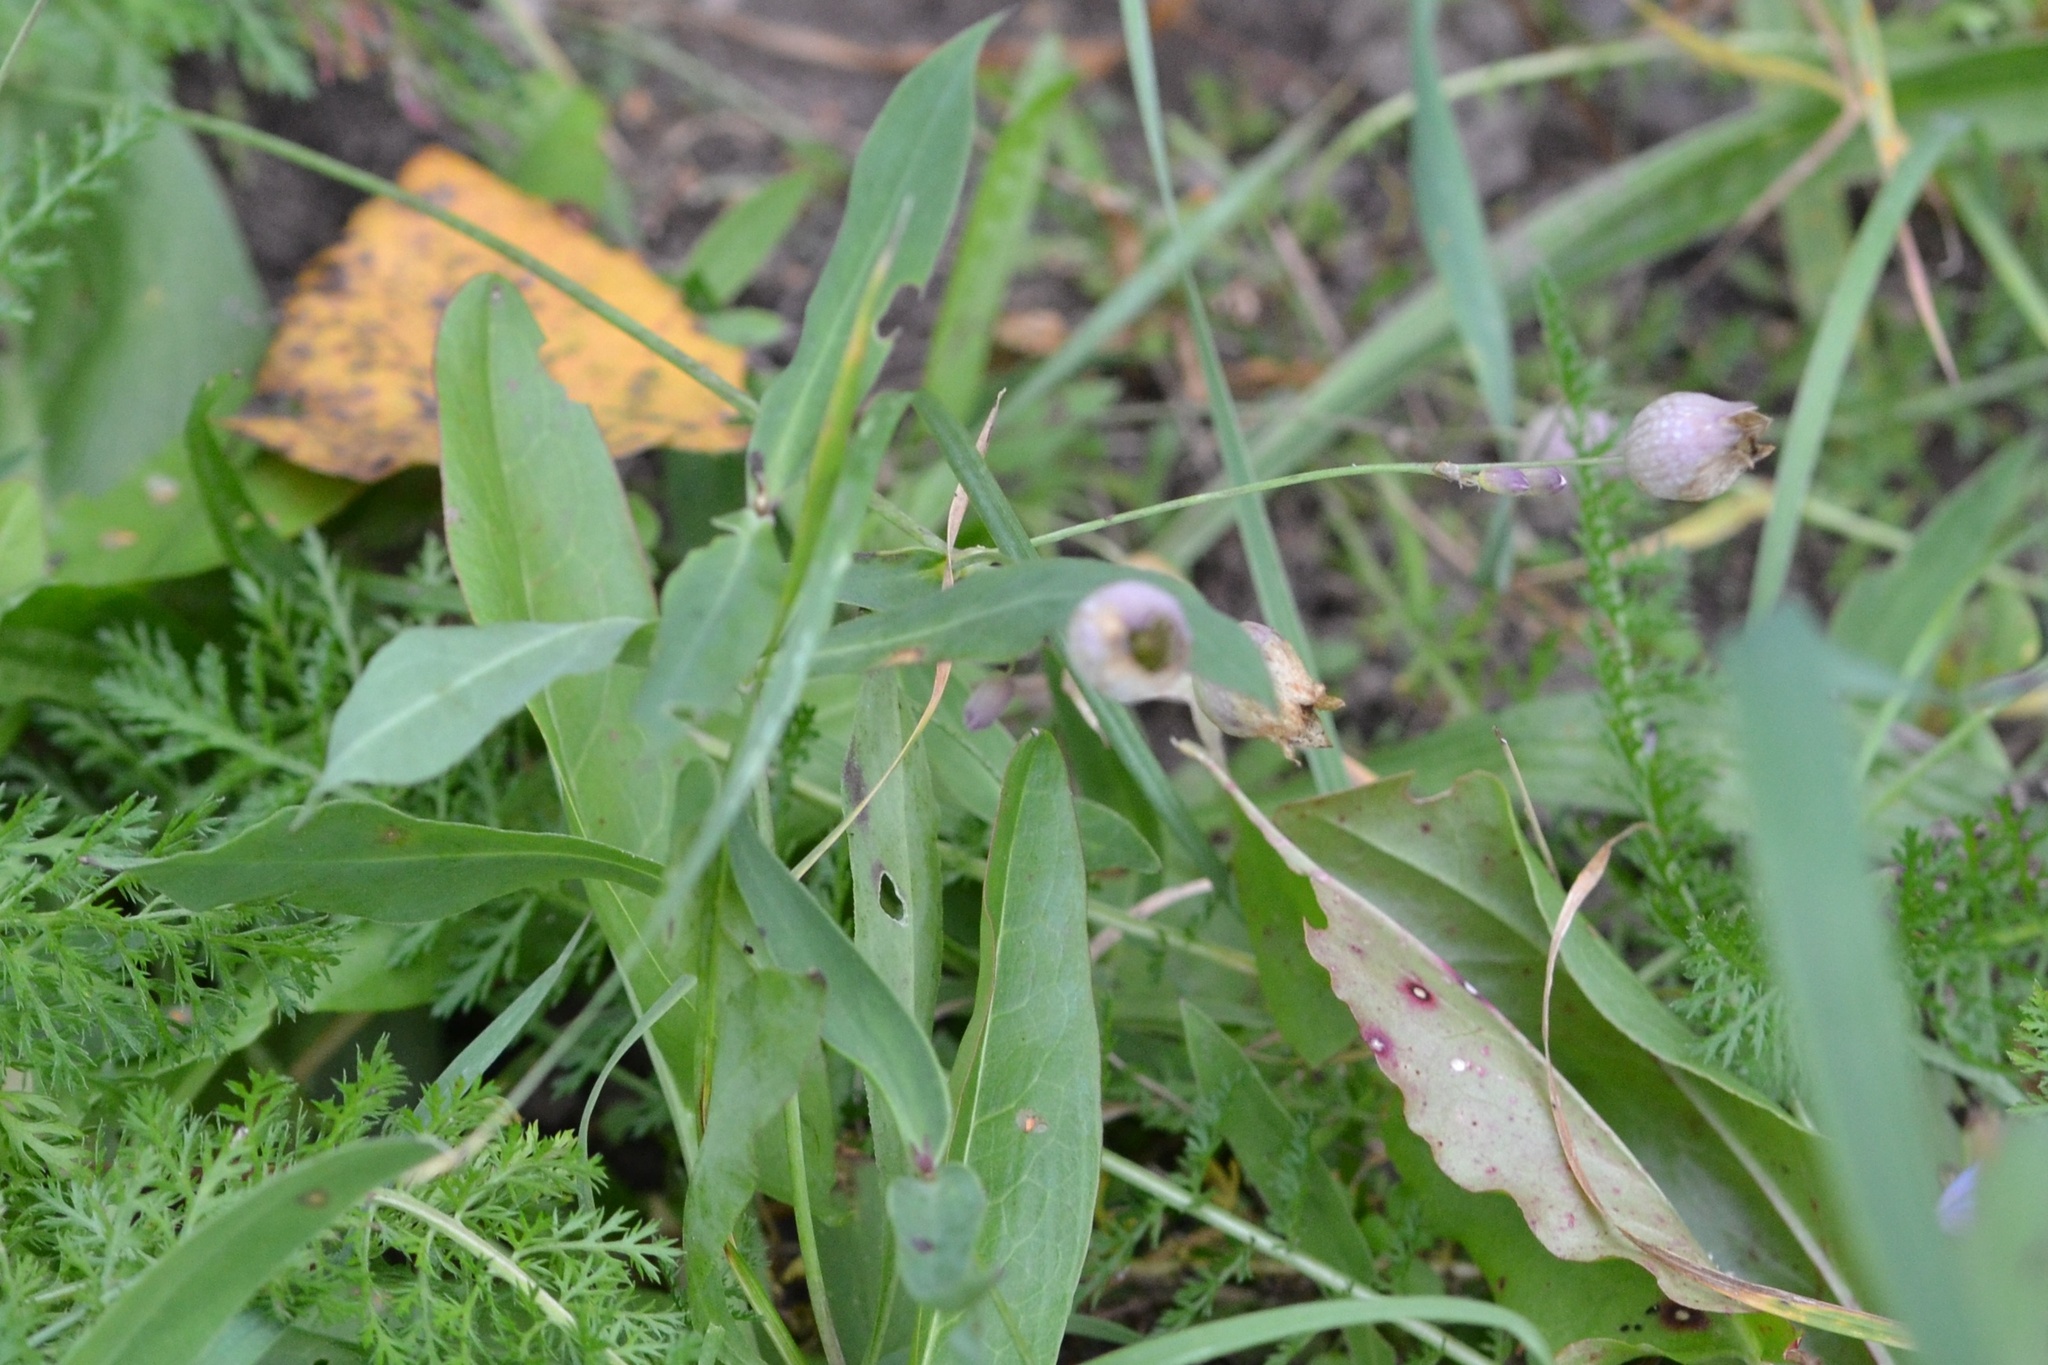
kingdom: Plantae
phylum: Tracheophyta
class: Magnoliopsida
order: Caryophyllales
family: Caryophyllaceae
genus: Silene
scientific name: Silene vulgaris
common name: Bladder campion
